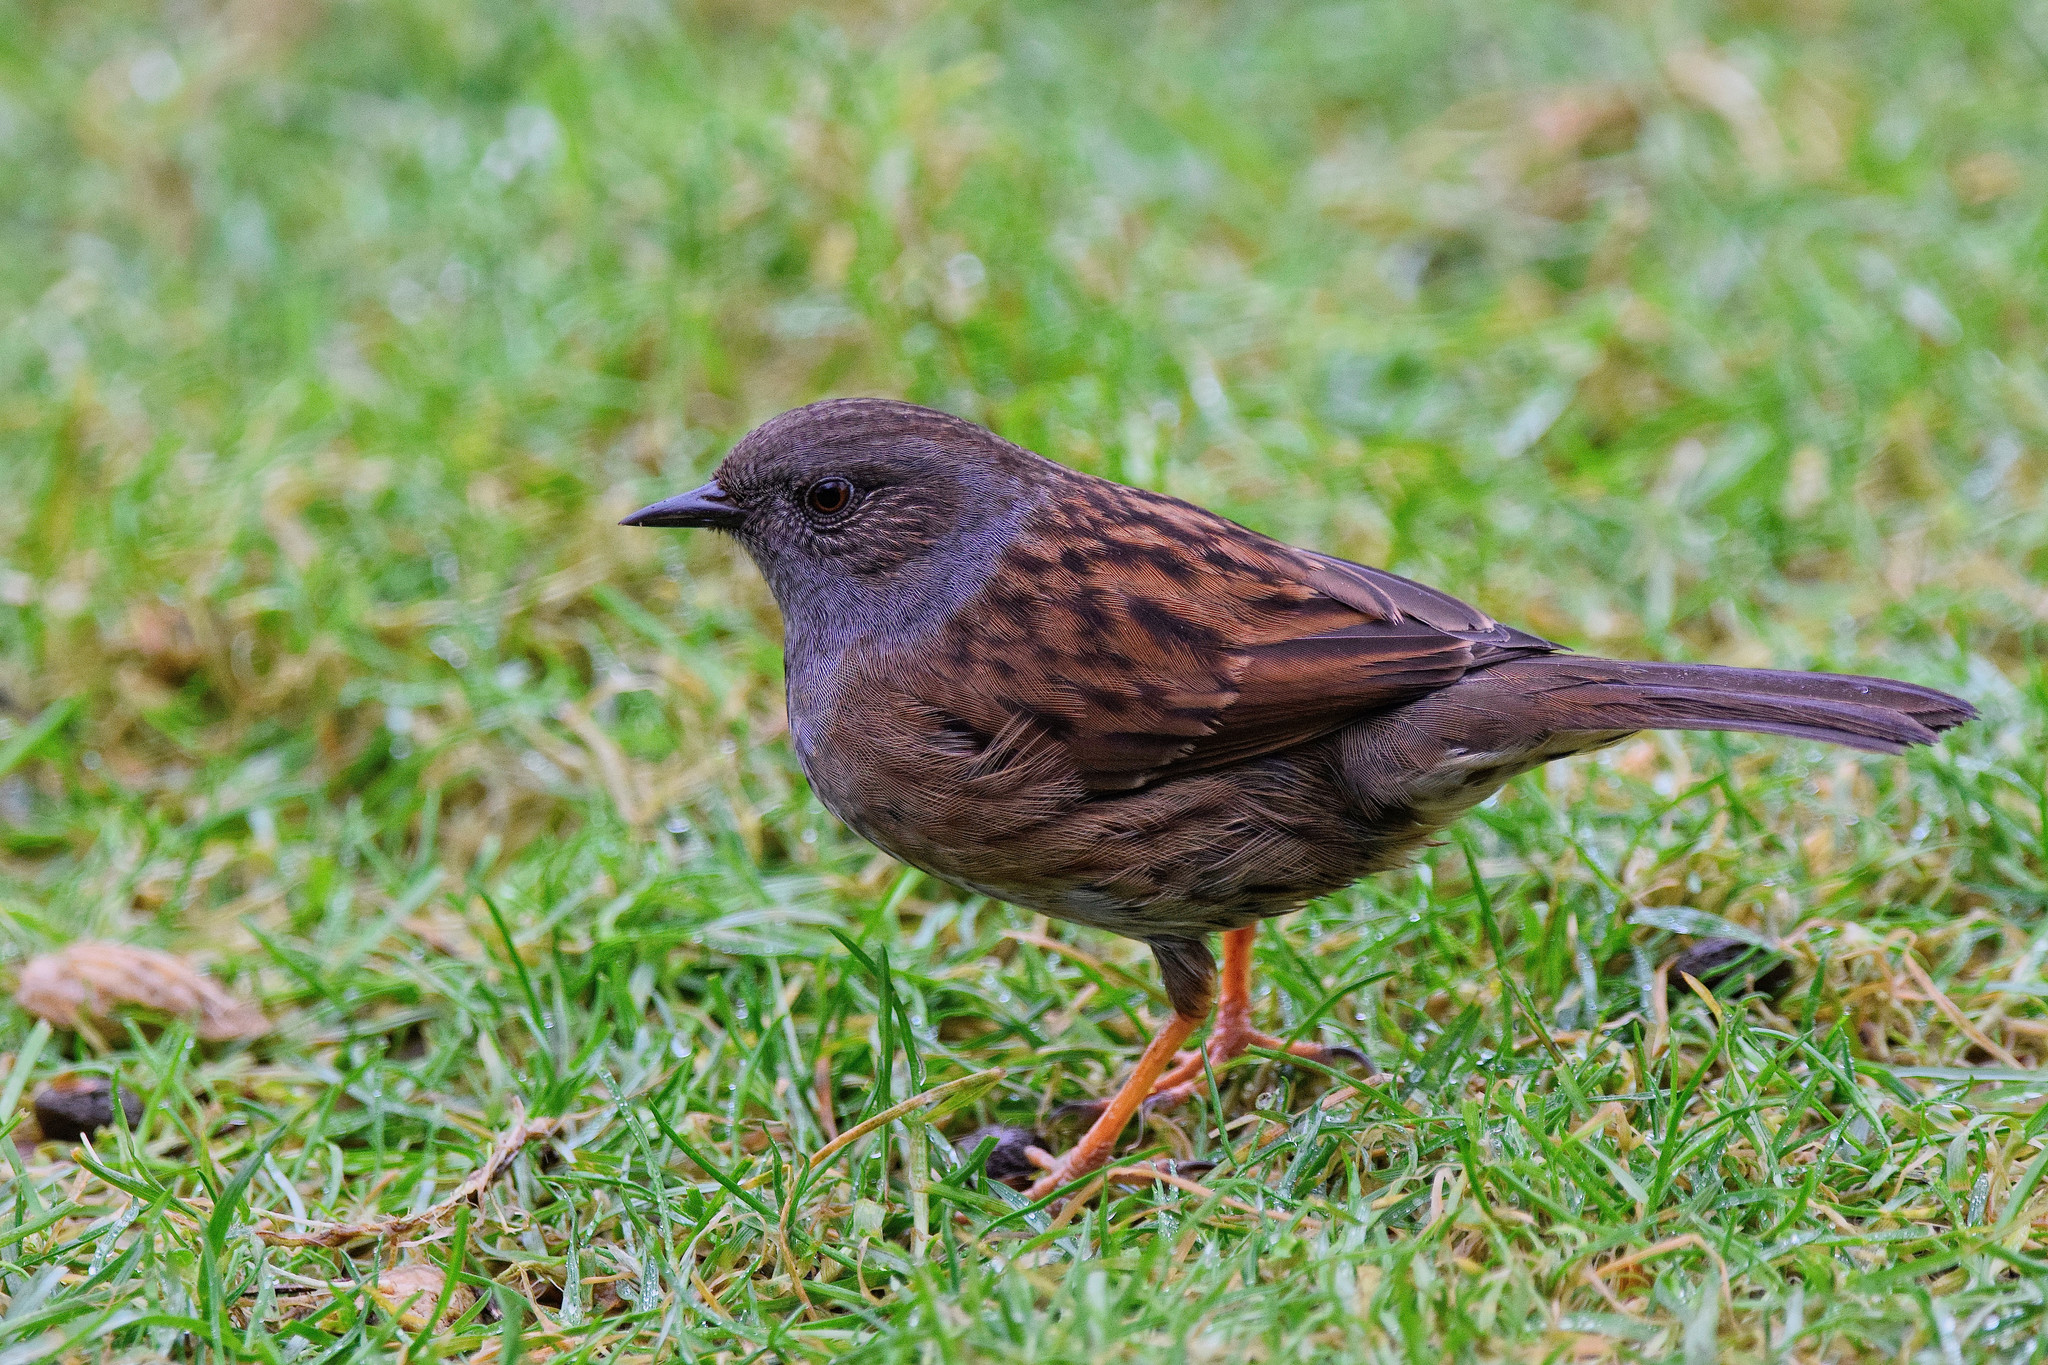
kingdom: Animalia
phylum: Chordata
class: Aves
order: Passeriformes
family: Prunellidae
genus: Prunella
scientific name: Prunella modularis
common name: Dunnock
